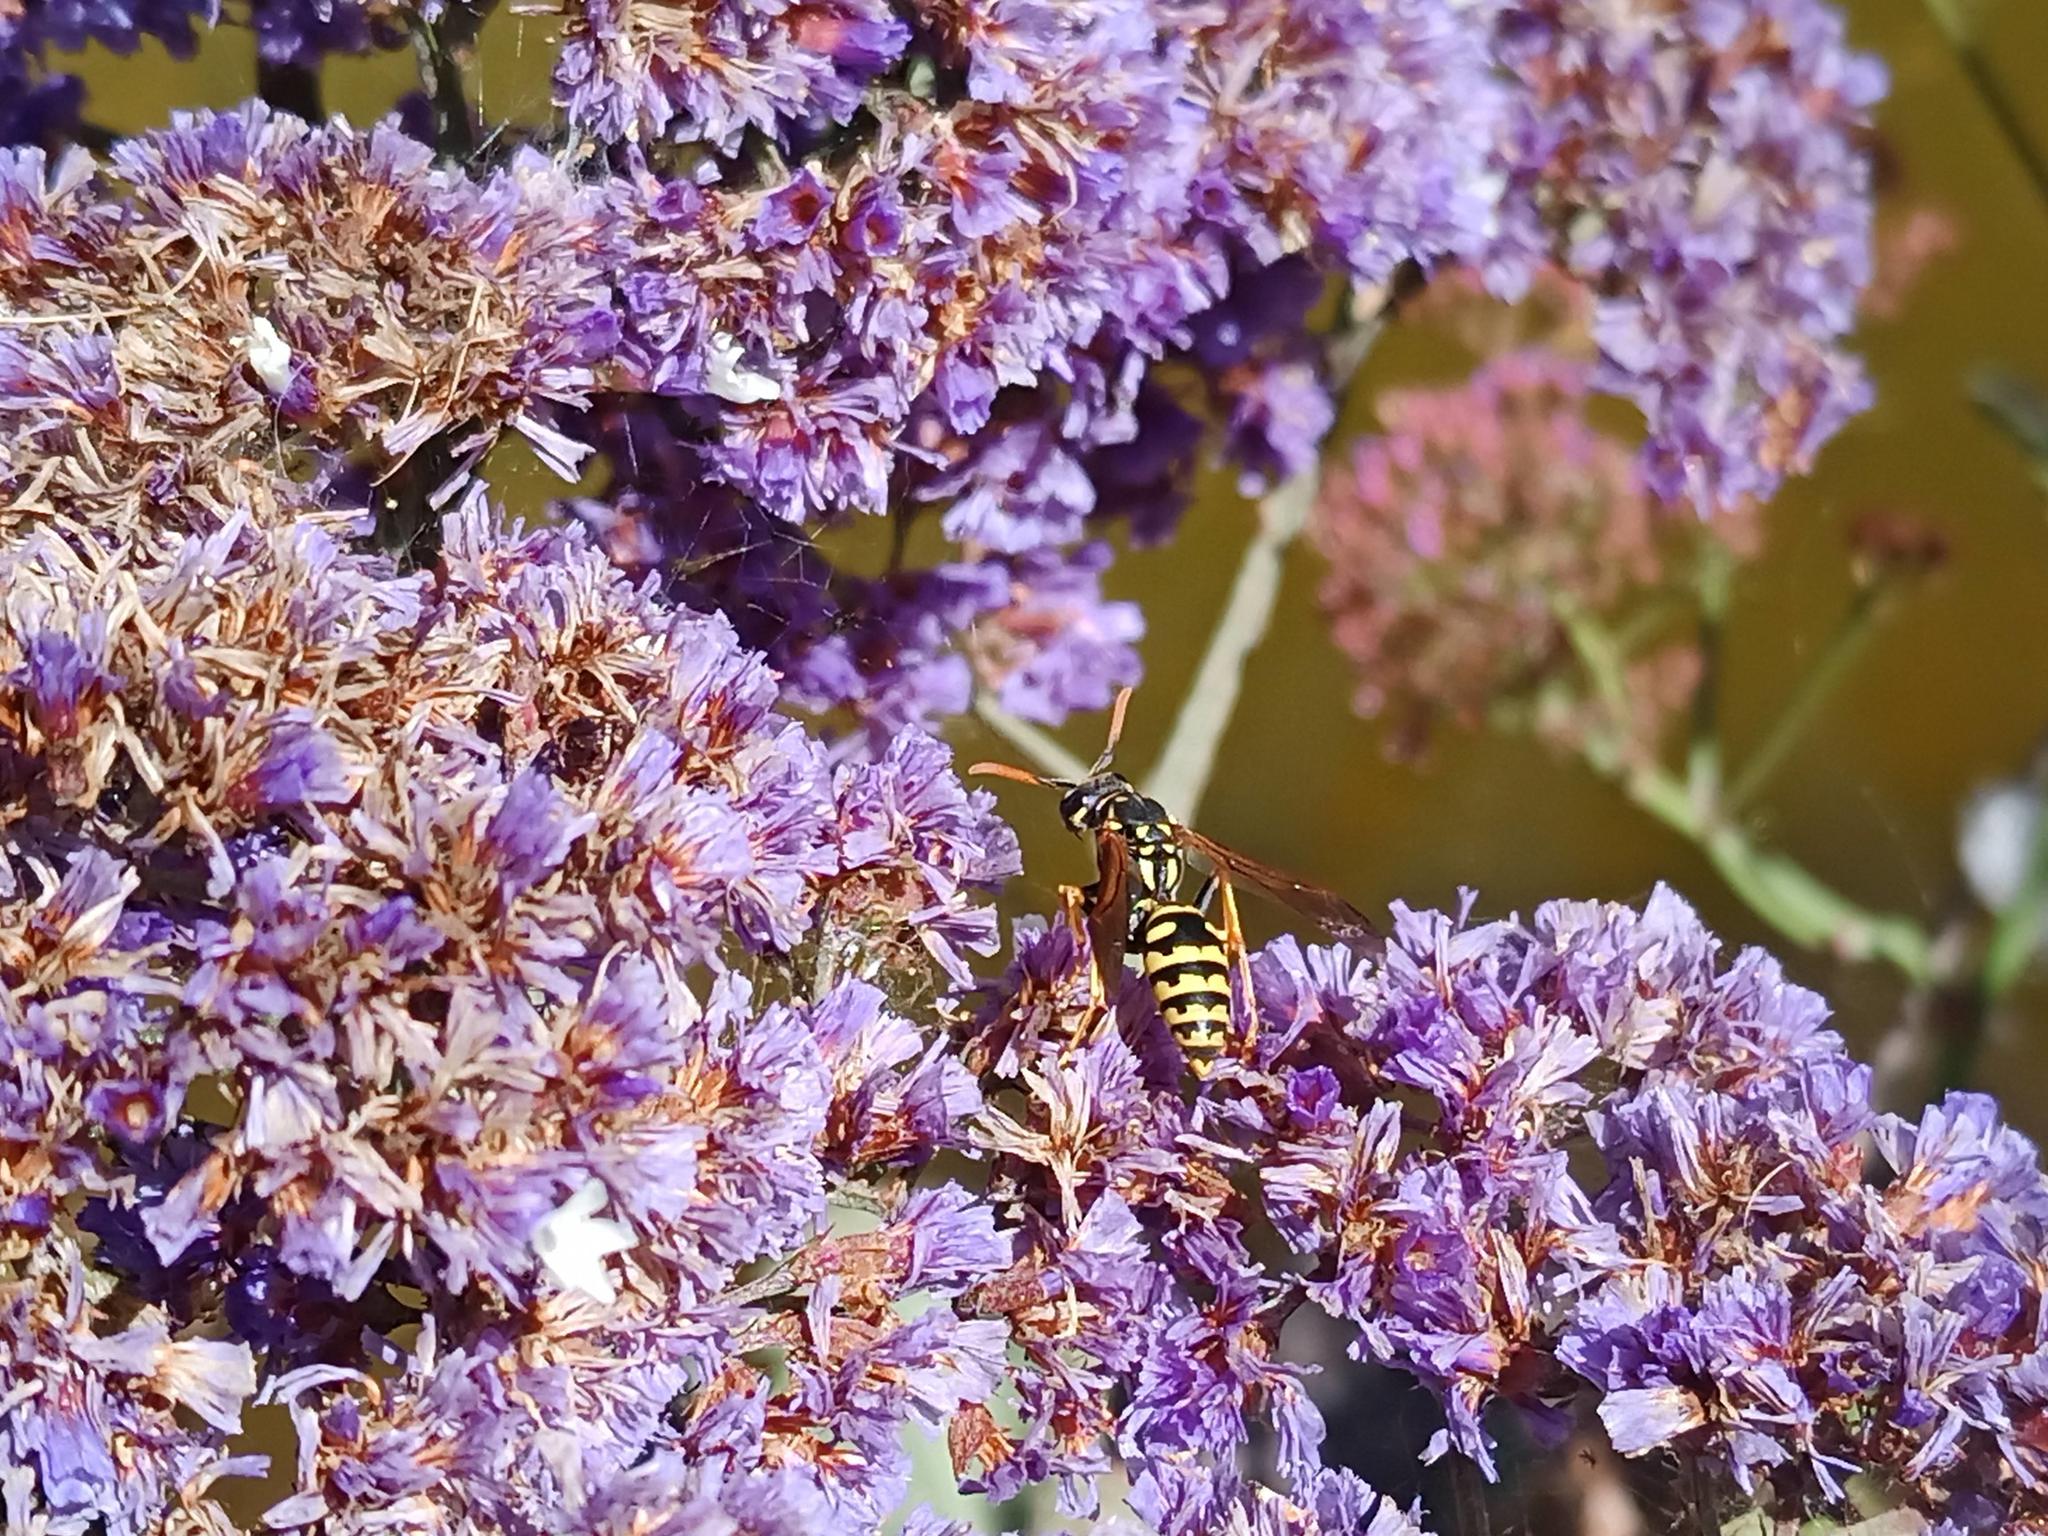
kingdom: Animalia
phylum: Arthropoda
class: Insecta
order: Hymenoptera
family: Eumenidae
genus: Polistes
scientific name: Polistes dominula
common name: Paper wasp
